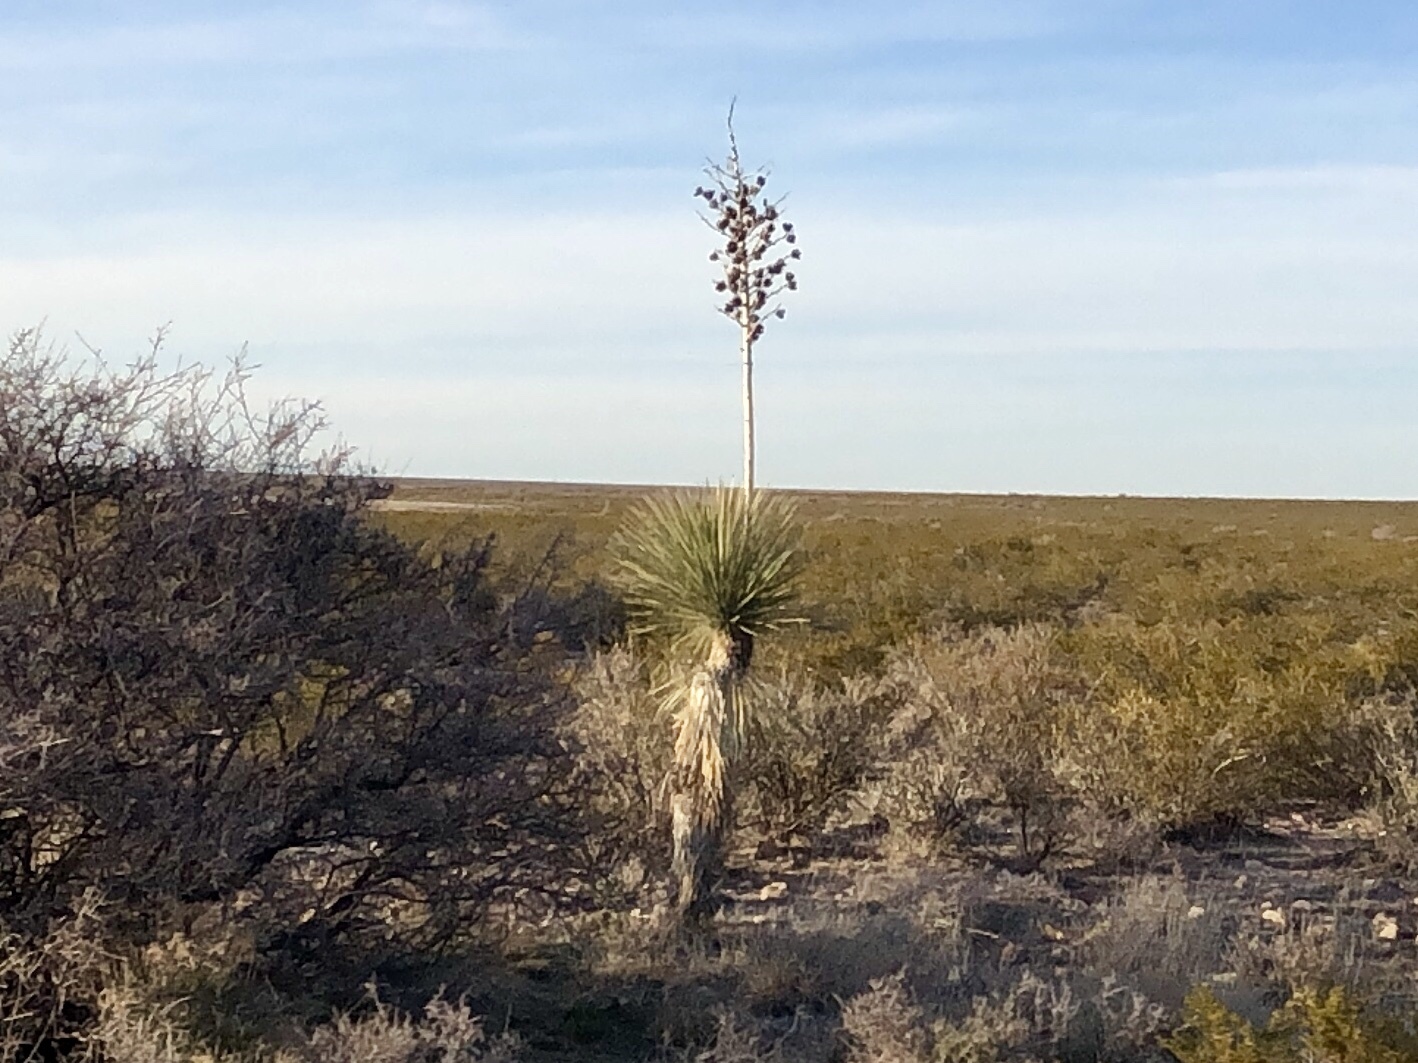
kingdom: Plantae
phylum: Tracheophyta
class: Liliopsida
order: Asparagales
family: Asparagaceae
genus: Yucca
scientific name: Yucca elata
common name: Palmella
